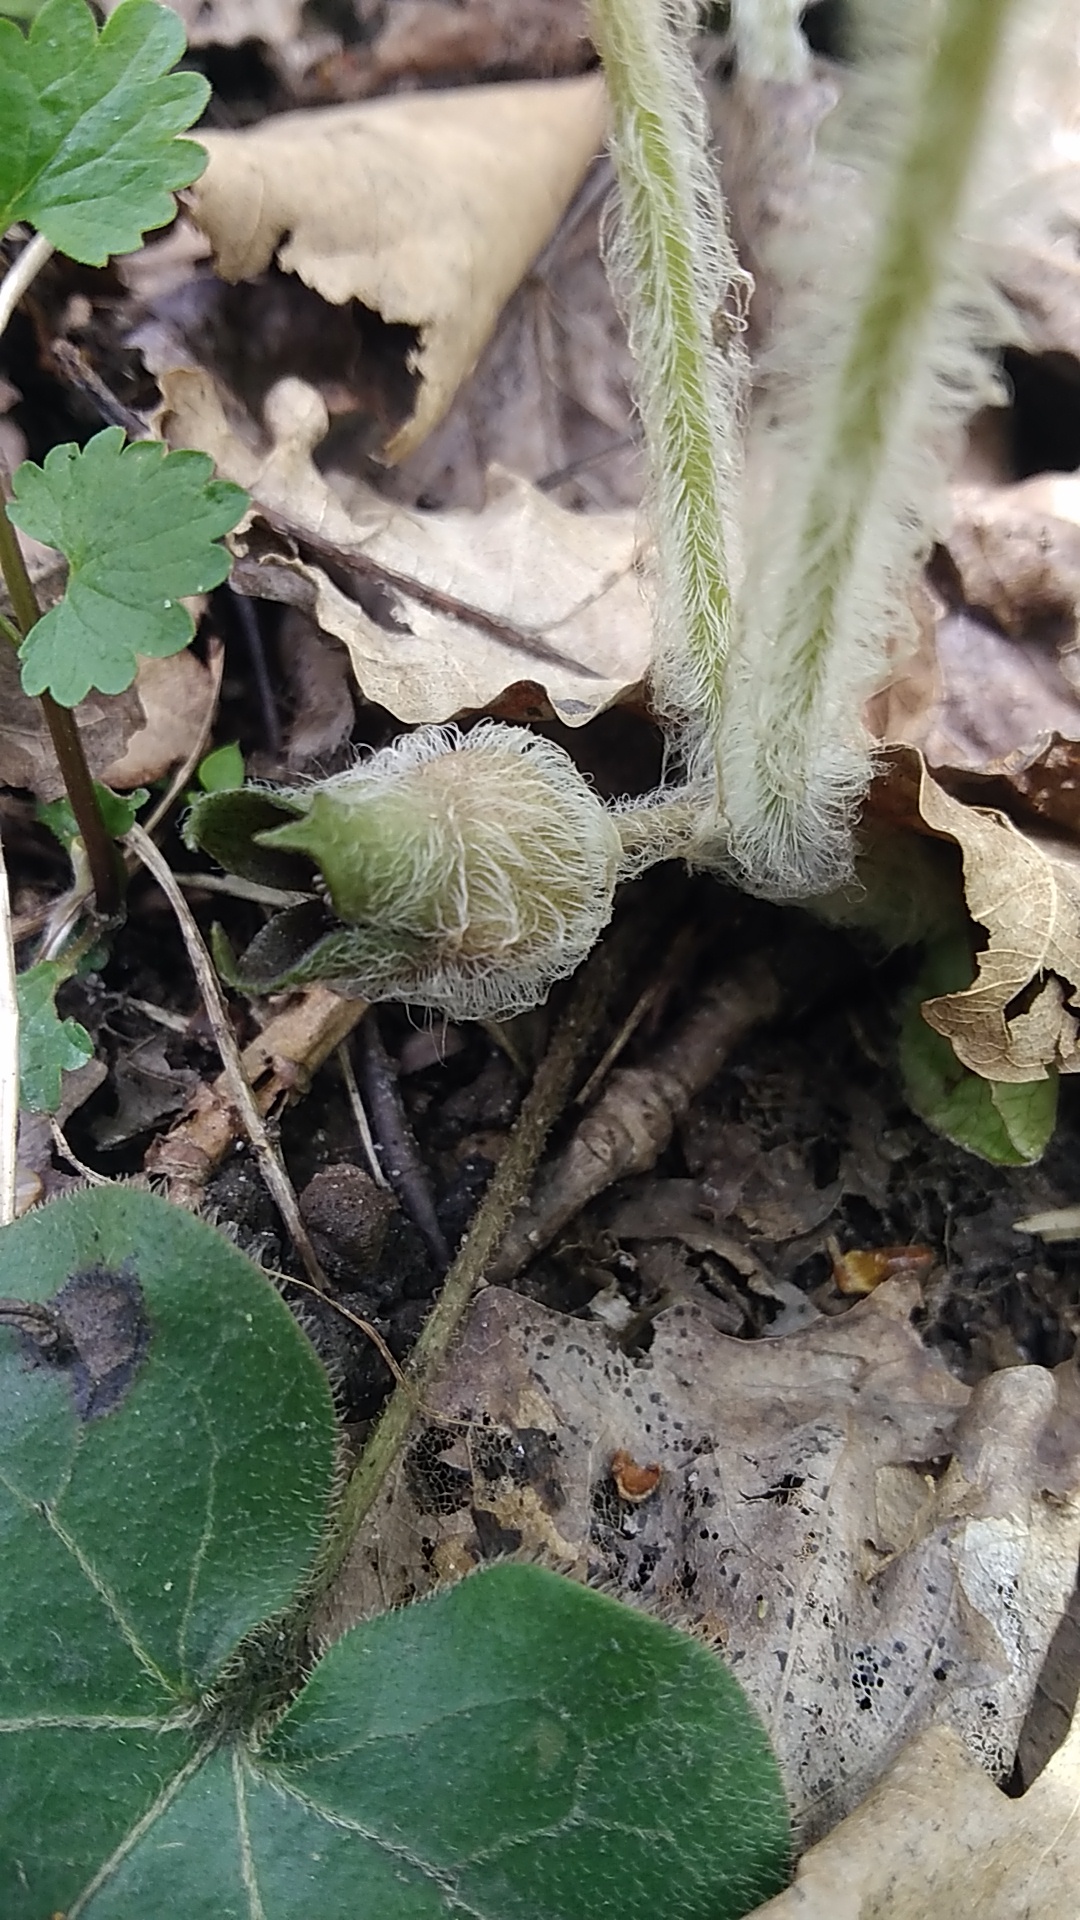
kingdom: Plantae
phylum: Tracheophyta
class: Magnoliopsida
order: Piperales
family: Aristolochiaceae
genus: Asarum
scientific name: Asarum europaeum
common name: Asarabacca
